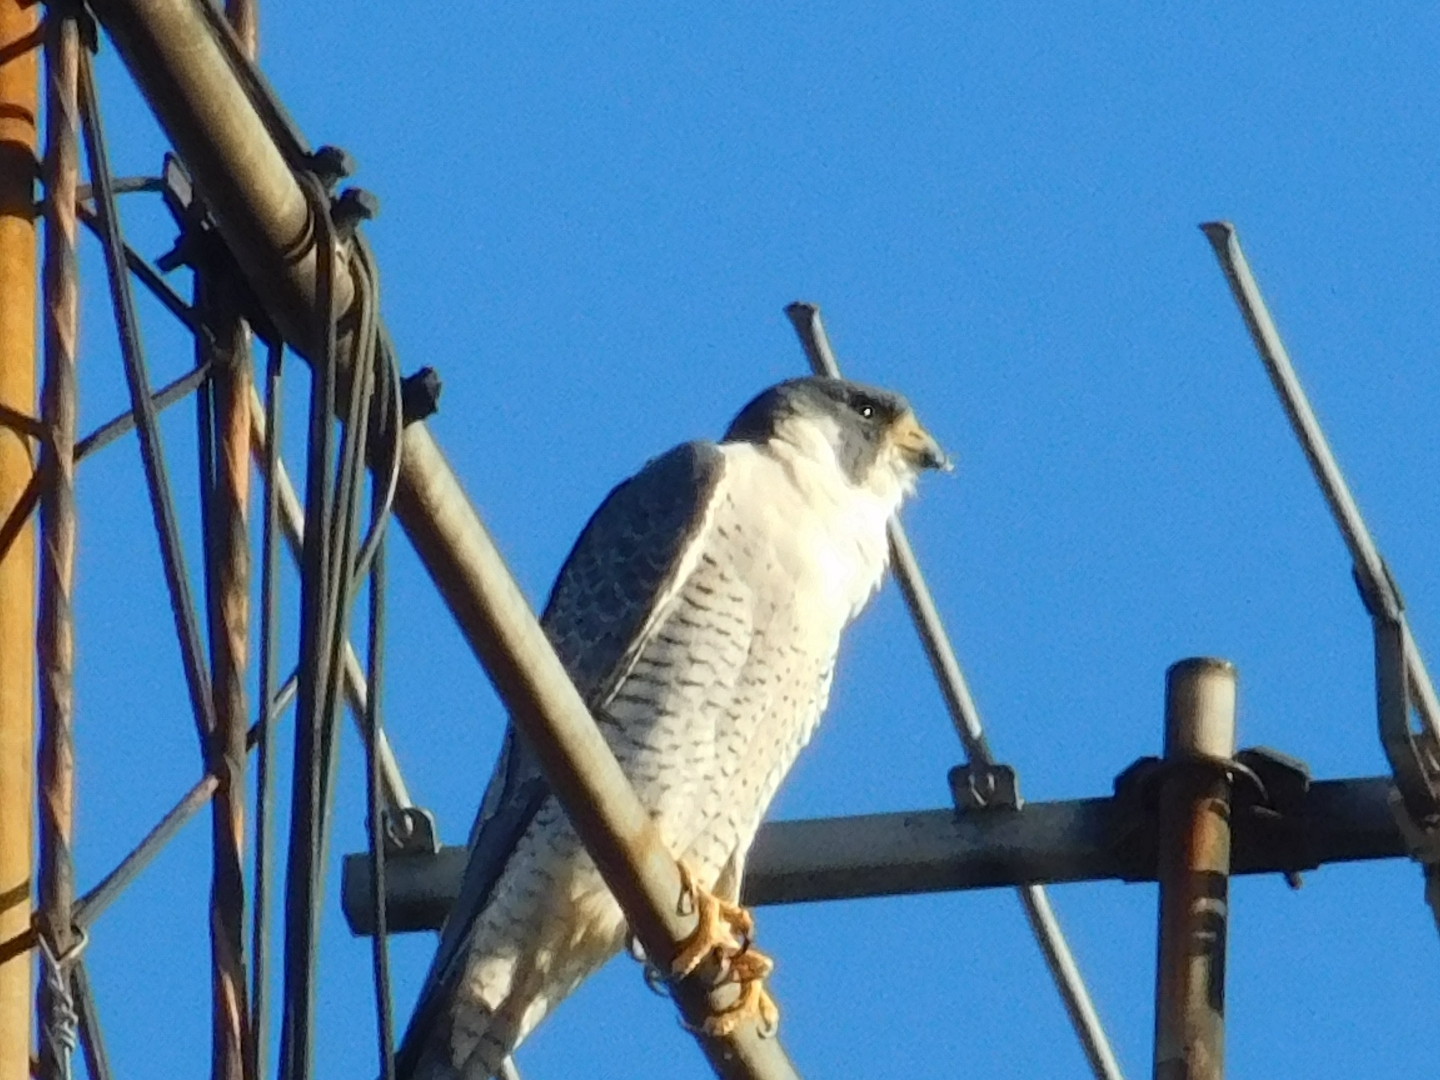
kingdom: Animalia
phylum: Chordata
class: Aves
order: Falconiformes
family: Falconidae
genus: Falco
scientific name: Falco peregrinus
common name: Peregrine falcon
